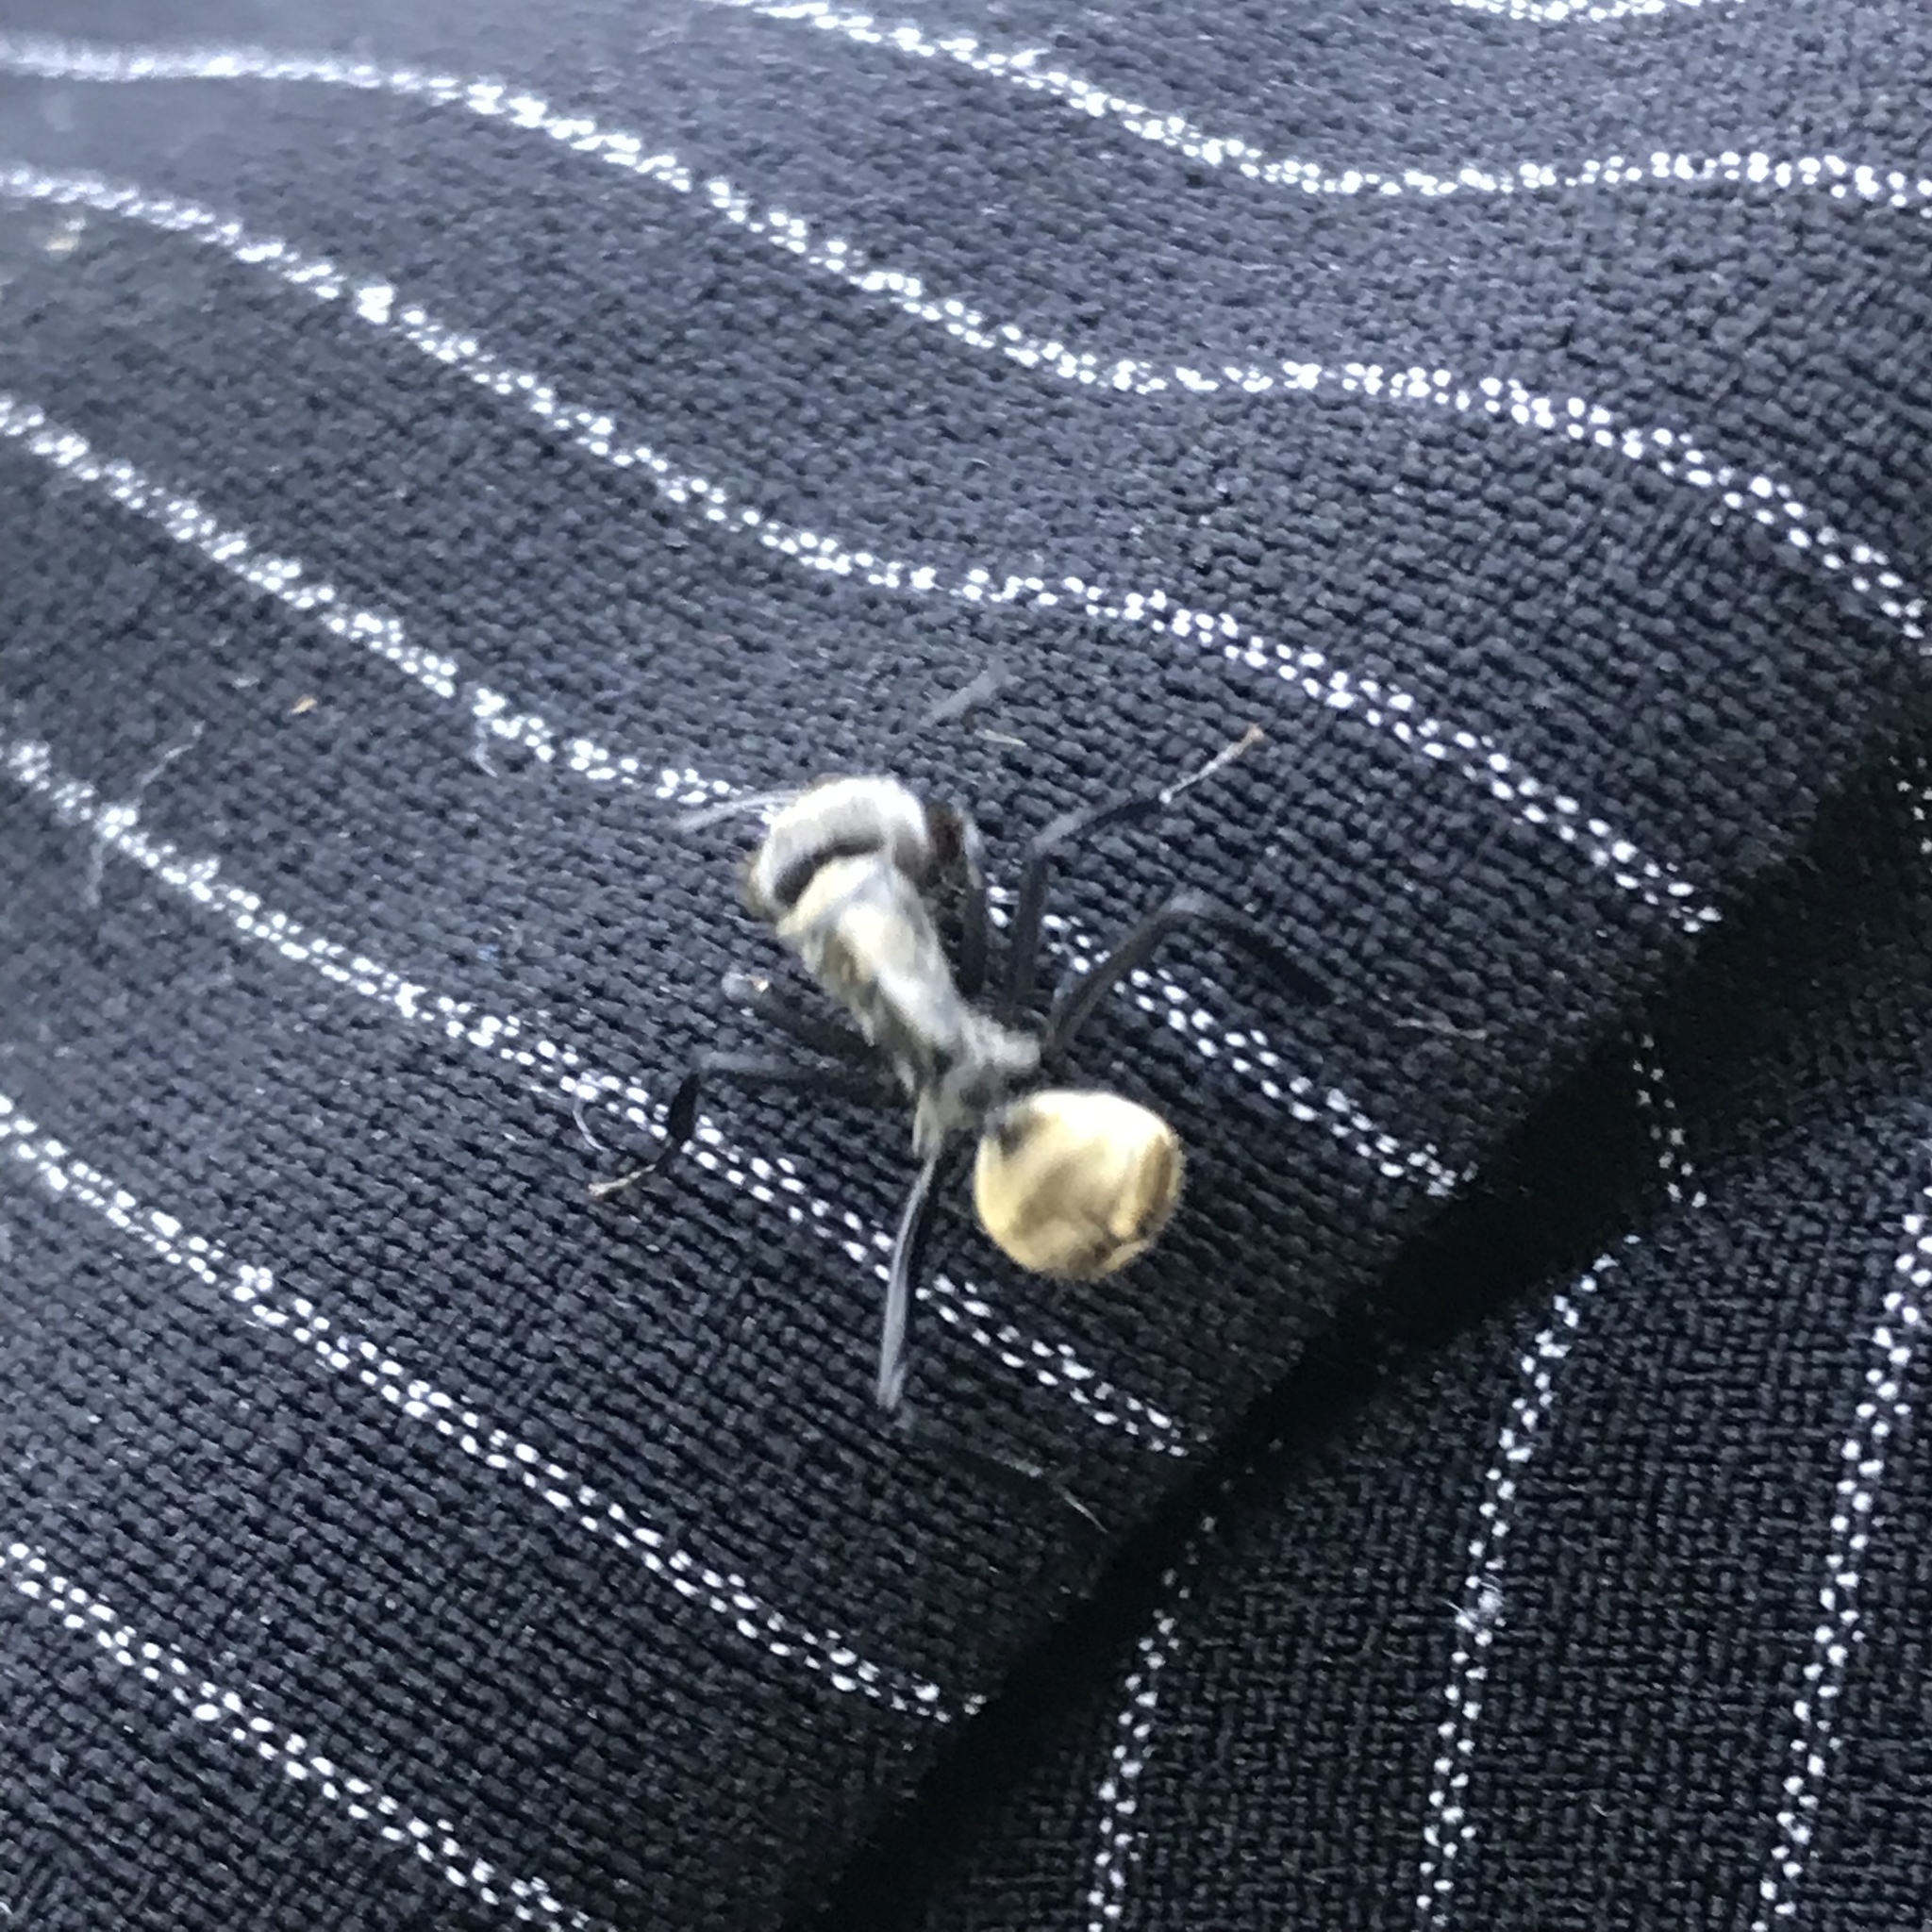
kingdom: Animalia
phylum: Arthropoda
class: Insecta
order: Hymenoptera
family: Formicidae
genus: Camponotus
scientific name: Camponotus sericeiventris
